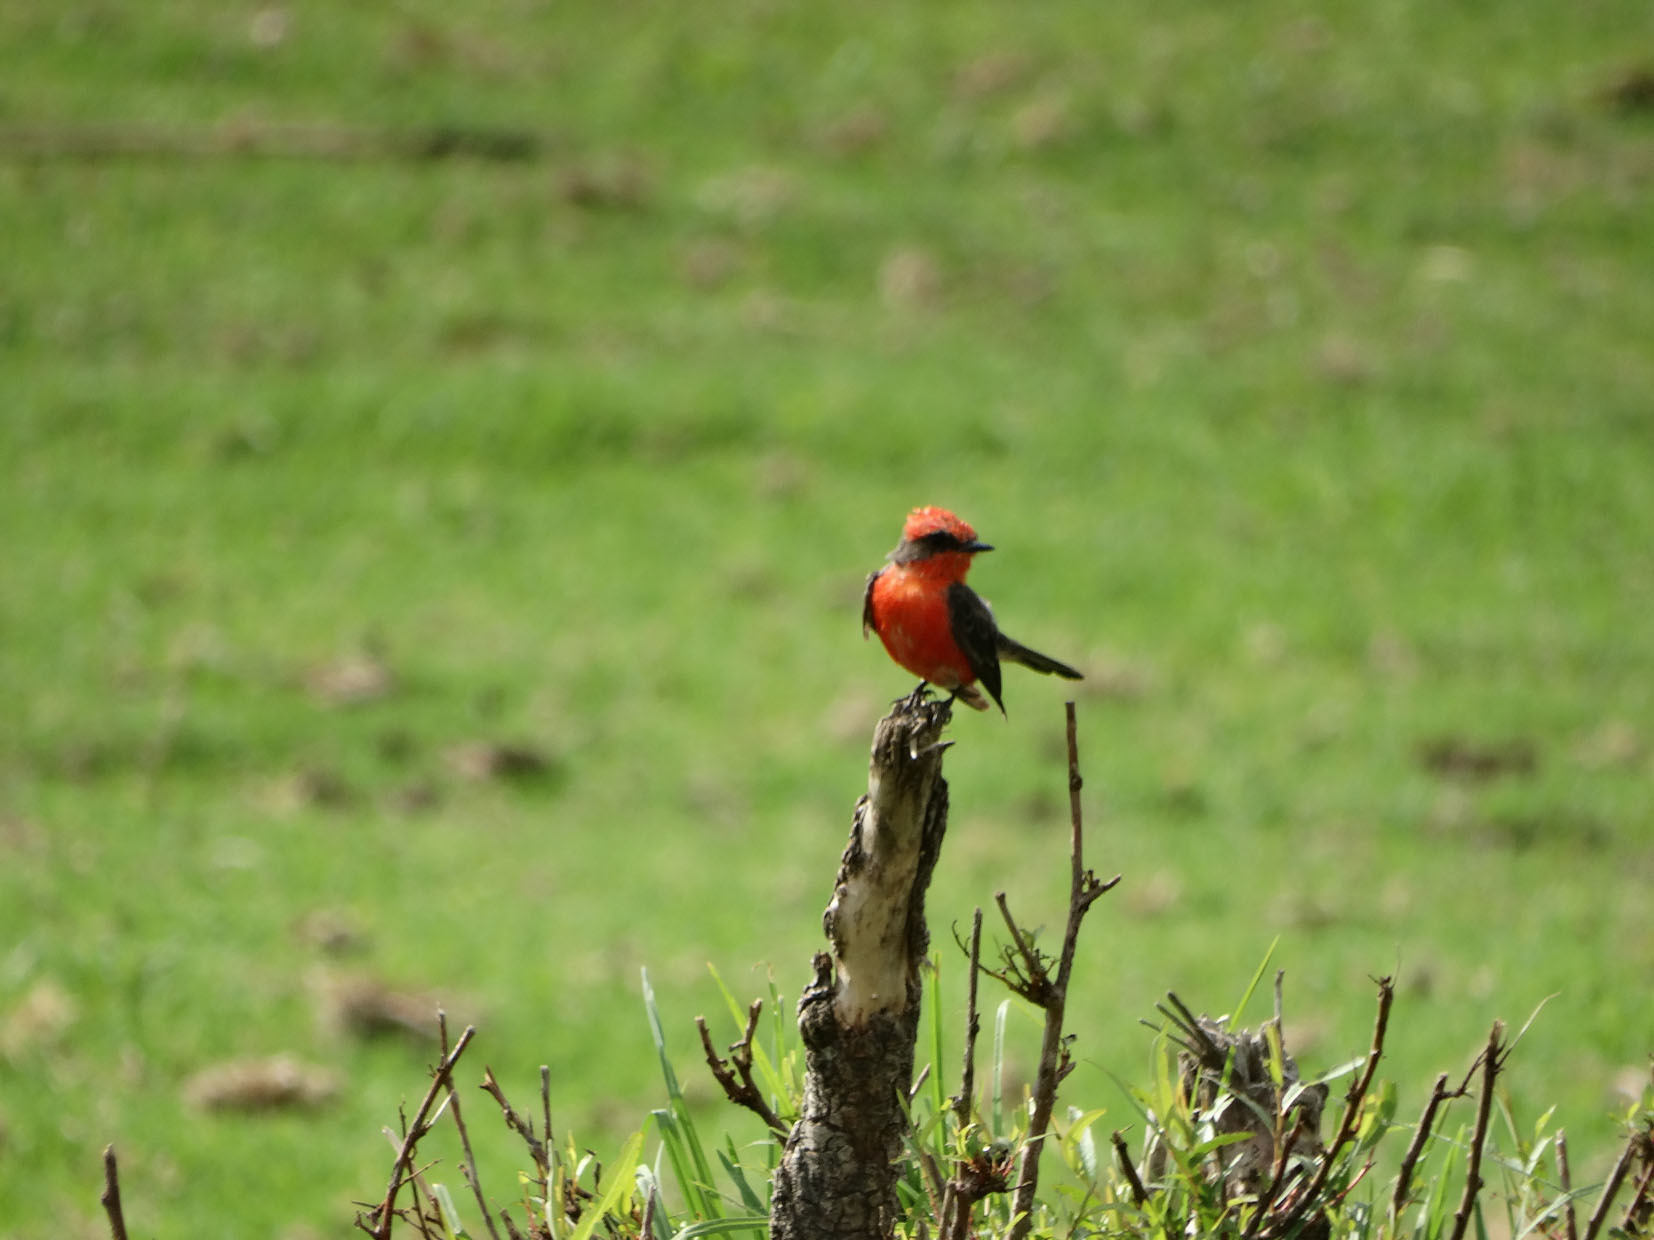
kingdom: Animalia
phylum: Chordata
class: Aves
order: Passeriformes
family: Tyrannidae
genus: Pyrocephalus
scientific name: Pyrocephalus rubinus
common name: Vermilion flycatcher
